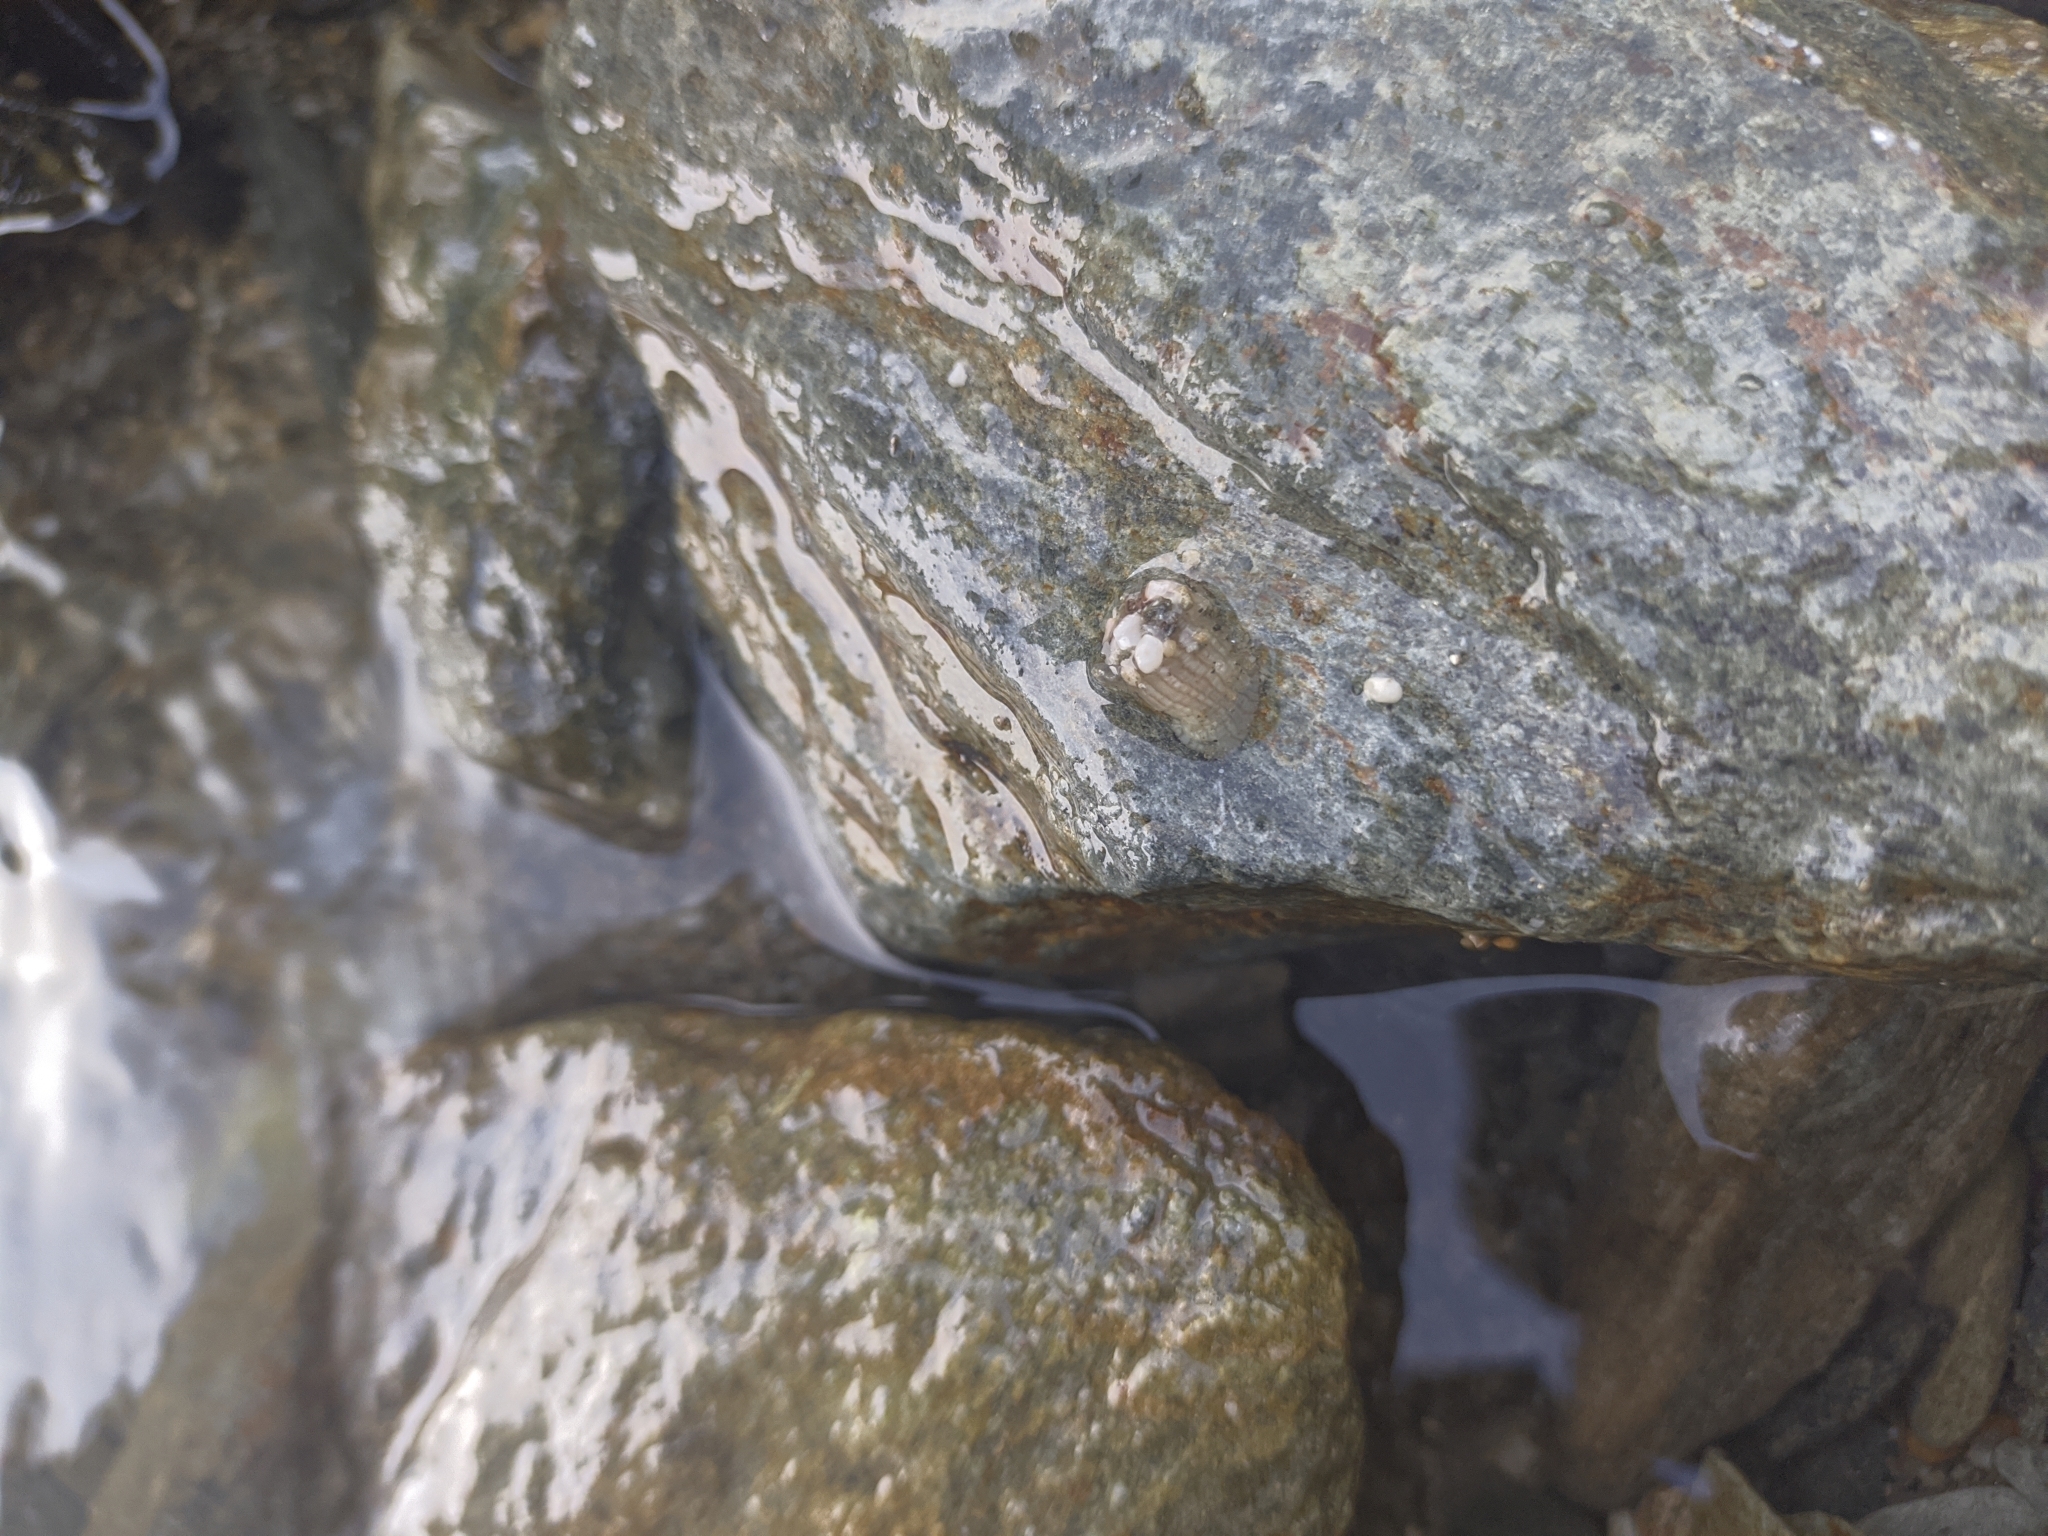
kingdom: Animalia
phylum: Cnidaria
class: Anthozoa
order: Actiniaria
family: Actiniidae
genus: Anthopleura
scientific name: Anthopleura pallida
